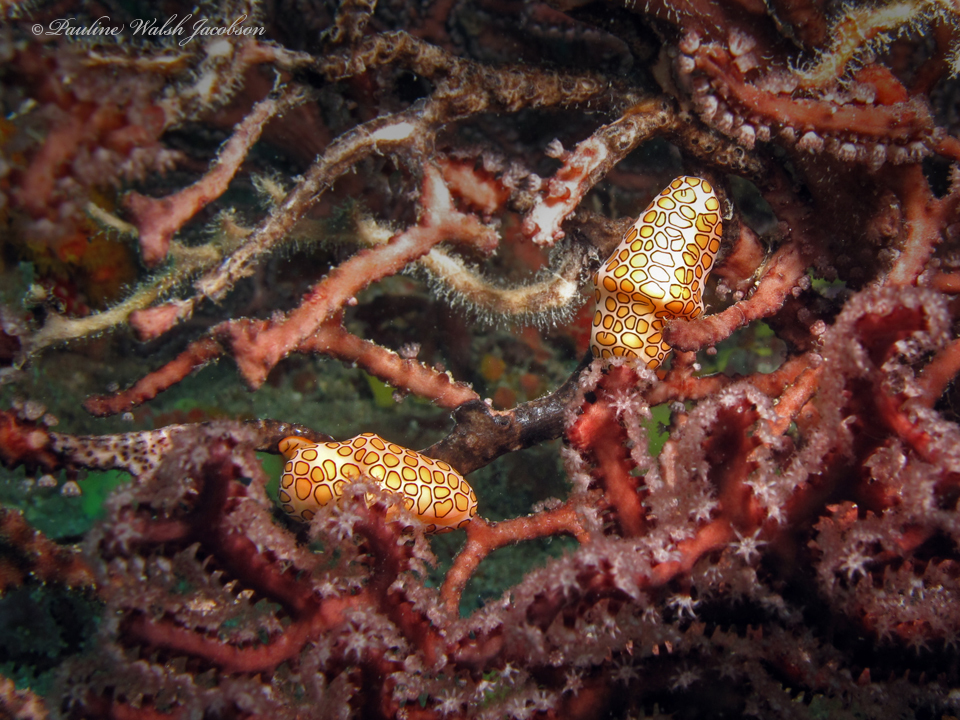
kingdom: Animalia
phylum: Mollusca
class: Gastropoda
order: Littorinimorpha
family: Ovulidae
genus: Cyphoma
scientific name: Cyphoma gibbosum
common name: Flamingo tongue
